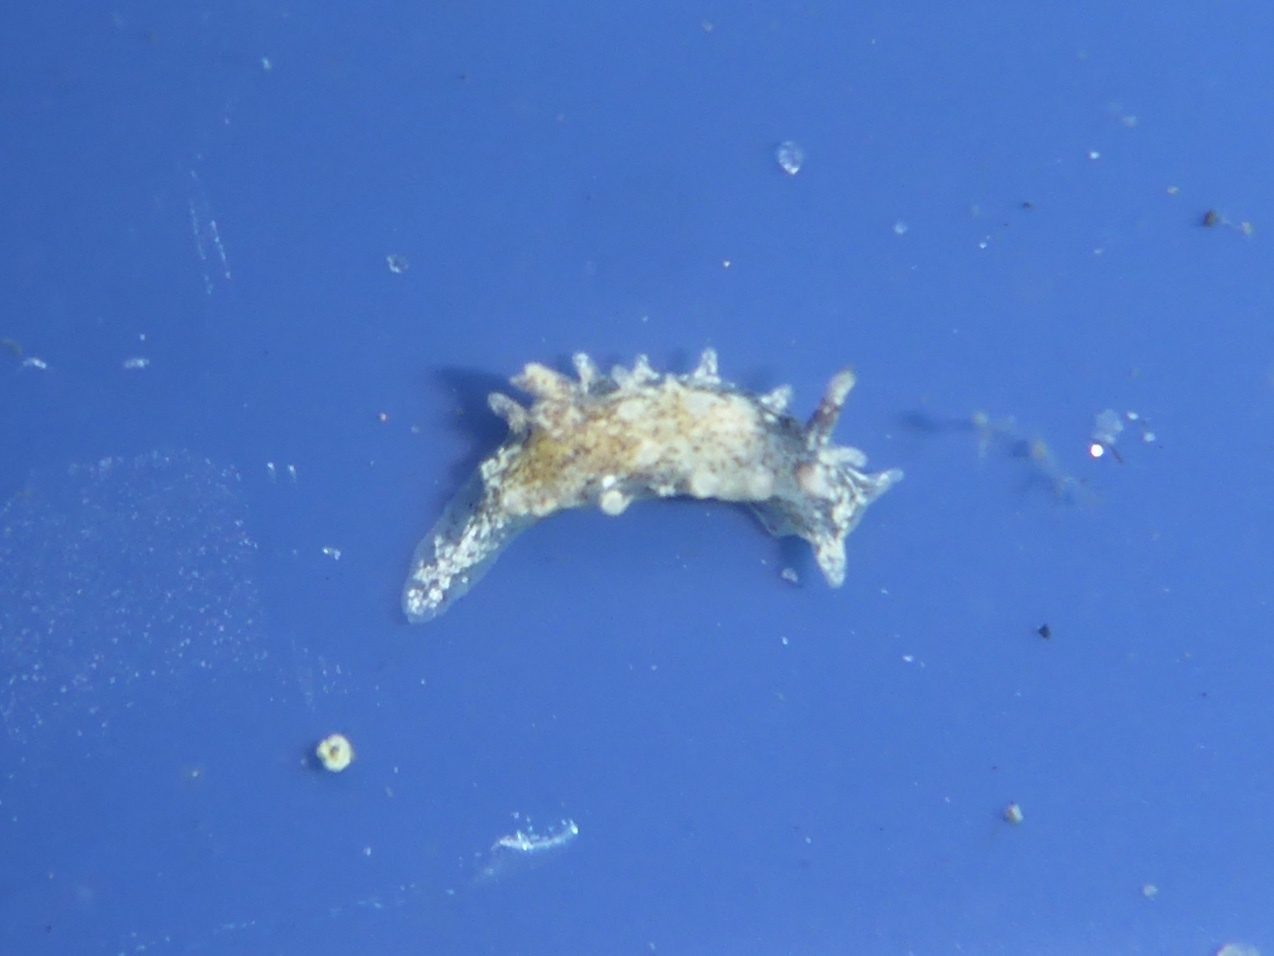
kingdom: Animalia
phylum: Mollusca
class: Gastropoda
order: Nudibranchia
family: Goniodorididae
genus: Okenia
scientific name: Okenia
